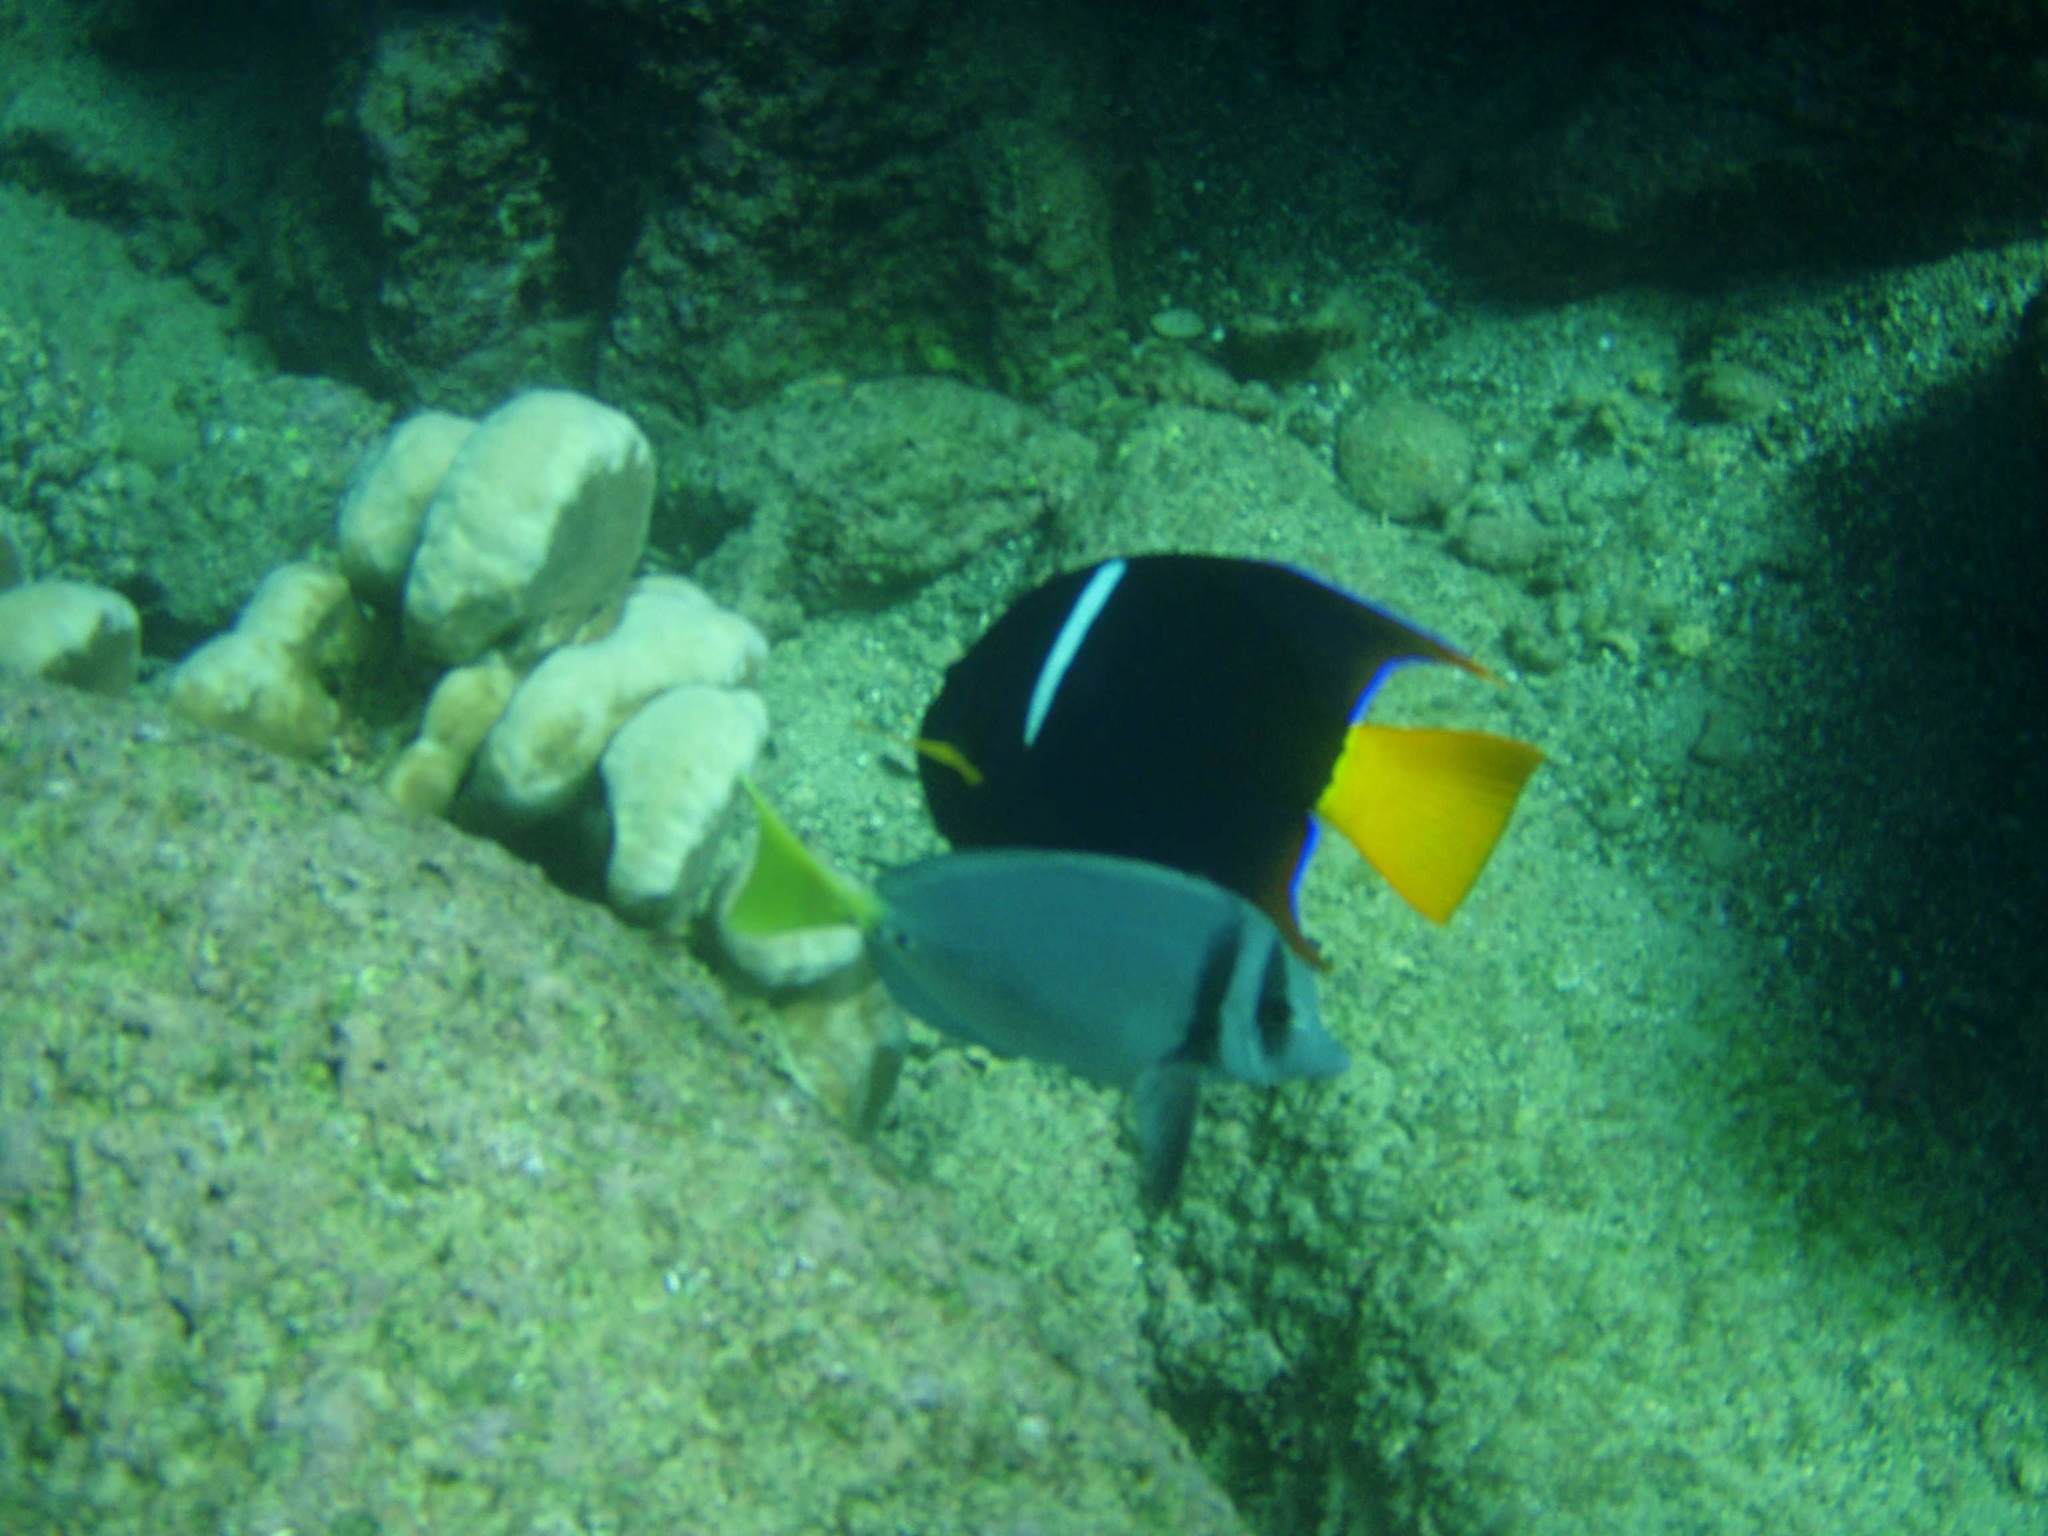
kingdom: Animalia
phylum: Chordata
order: Perciformes
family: Pomacanthidae
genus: Holacanthus
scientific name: Holacanthus passer
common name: King angelfish
